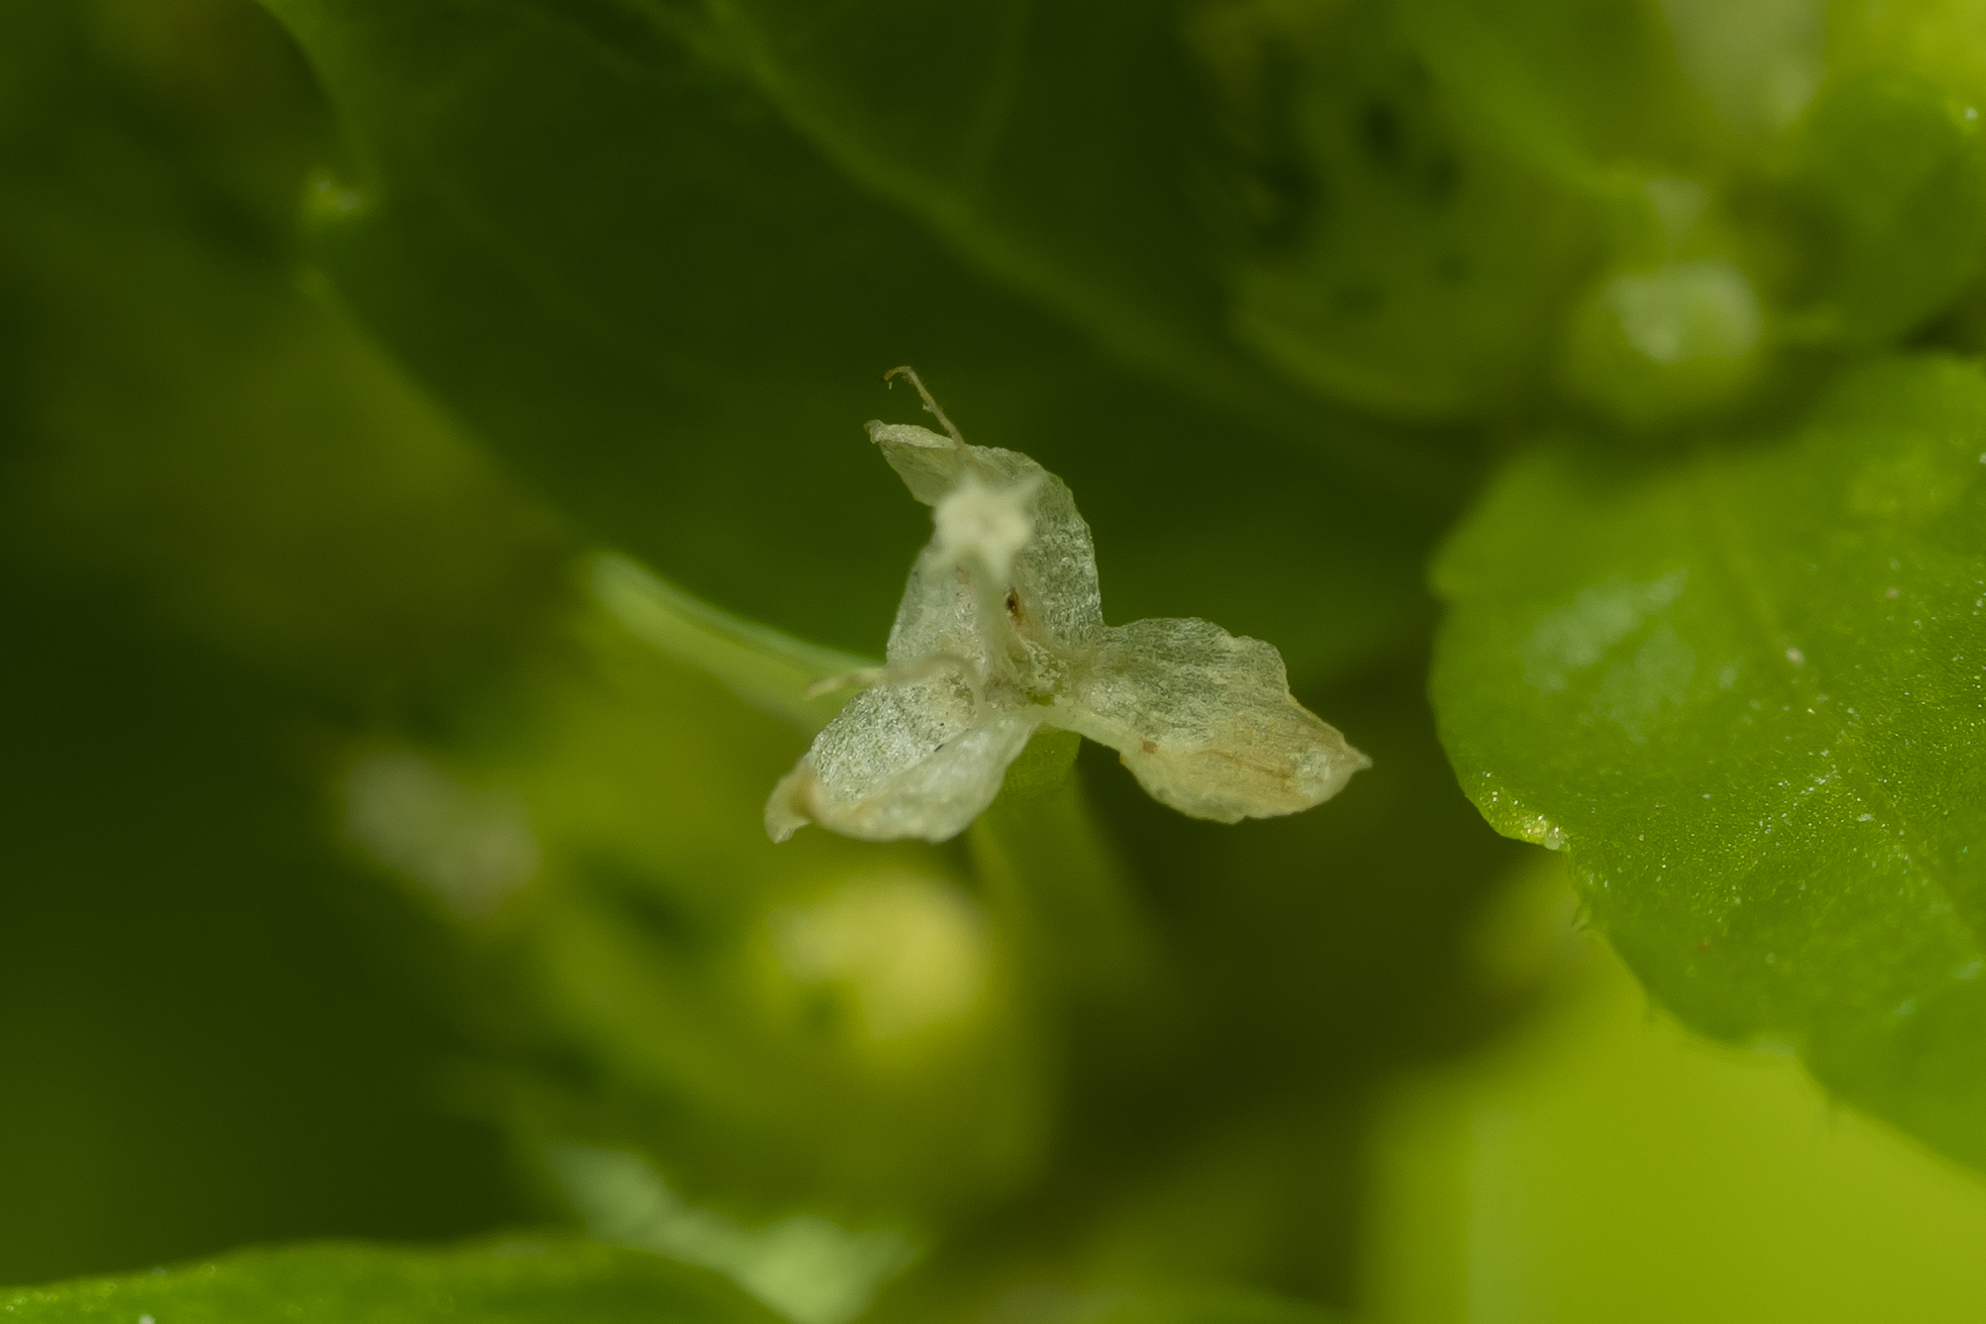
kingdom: Plantae
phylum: Tracheophyta
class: Magnoliopsida
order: Malpighiales
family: Euphorbiaceae
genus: Mercurialis
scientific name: Mercurialis annua
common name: Annual mercury
